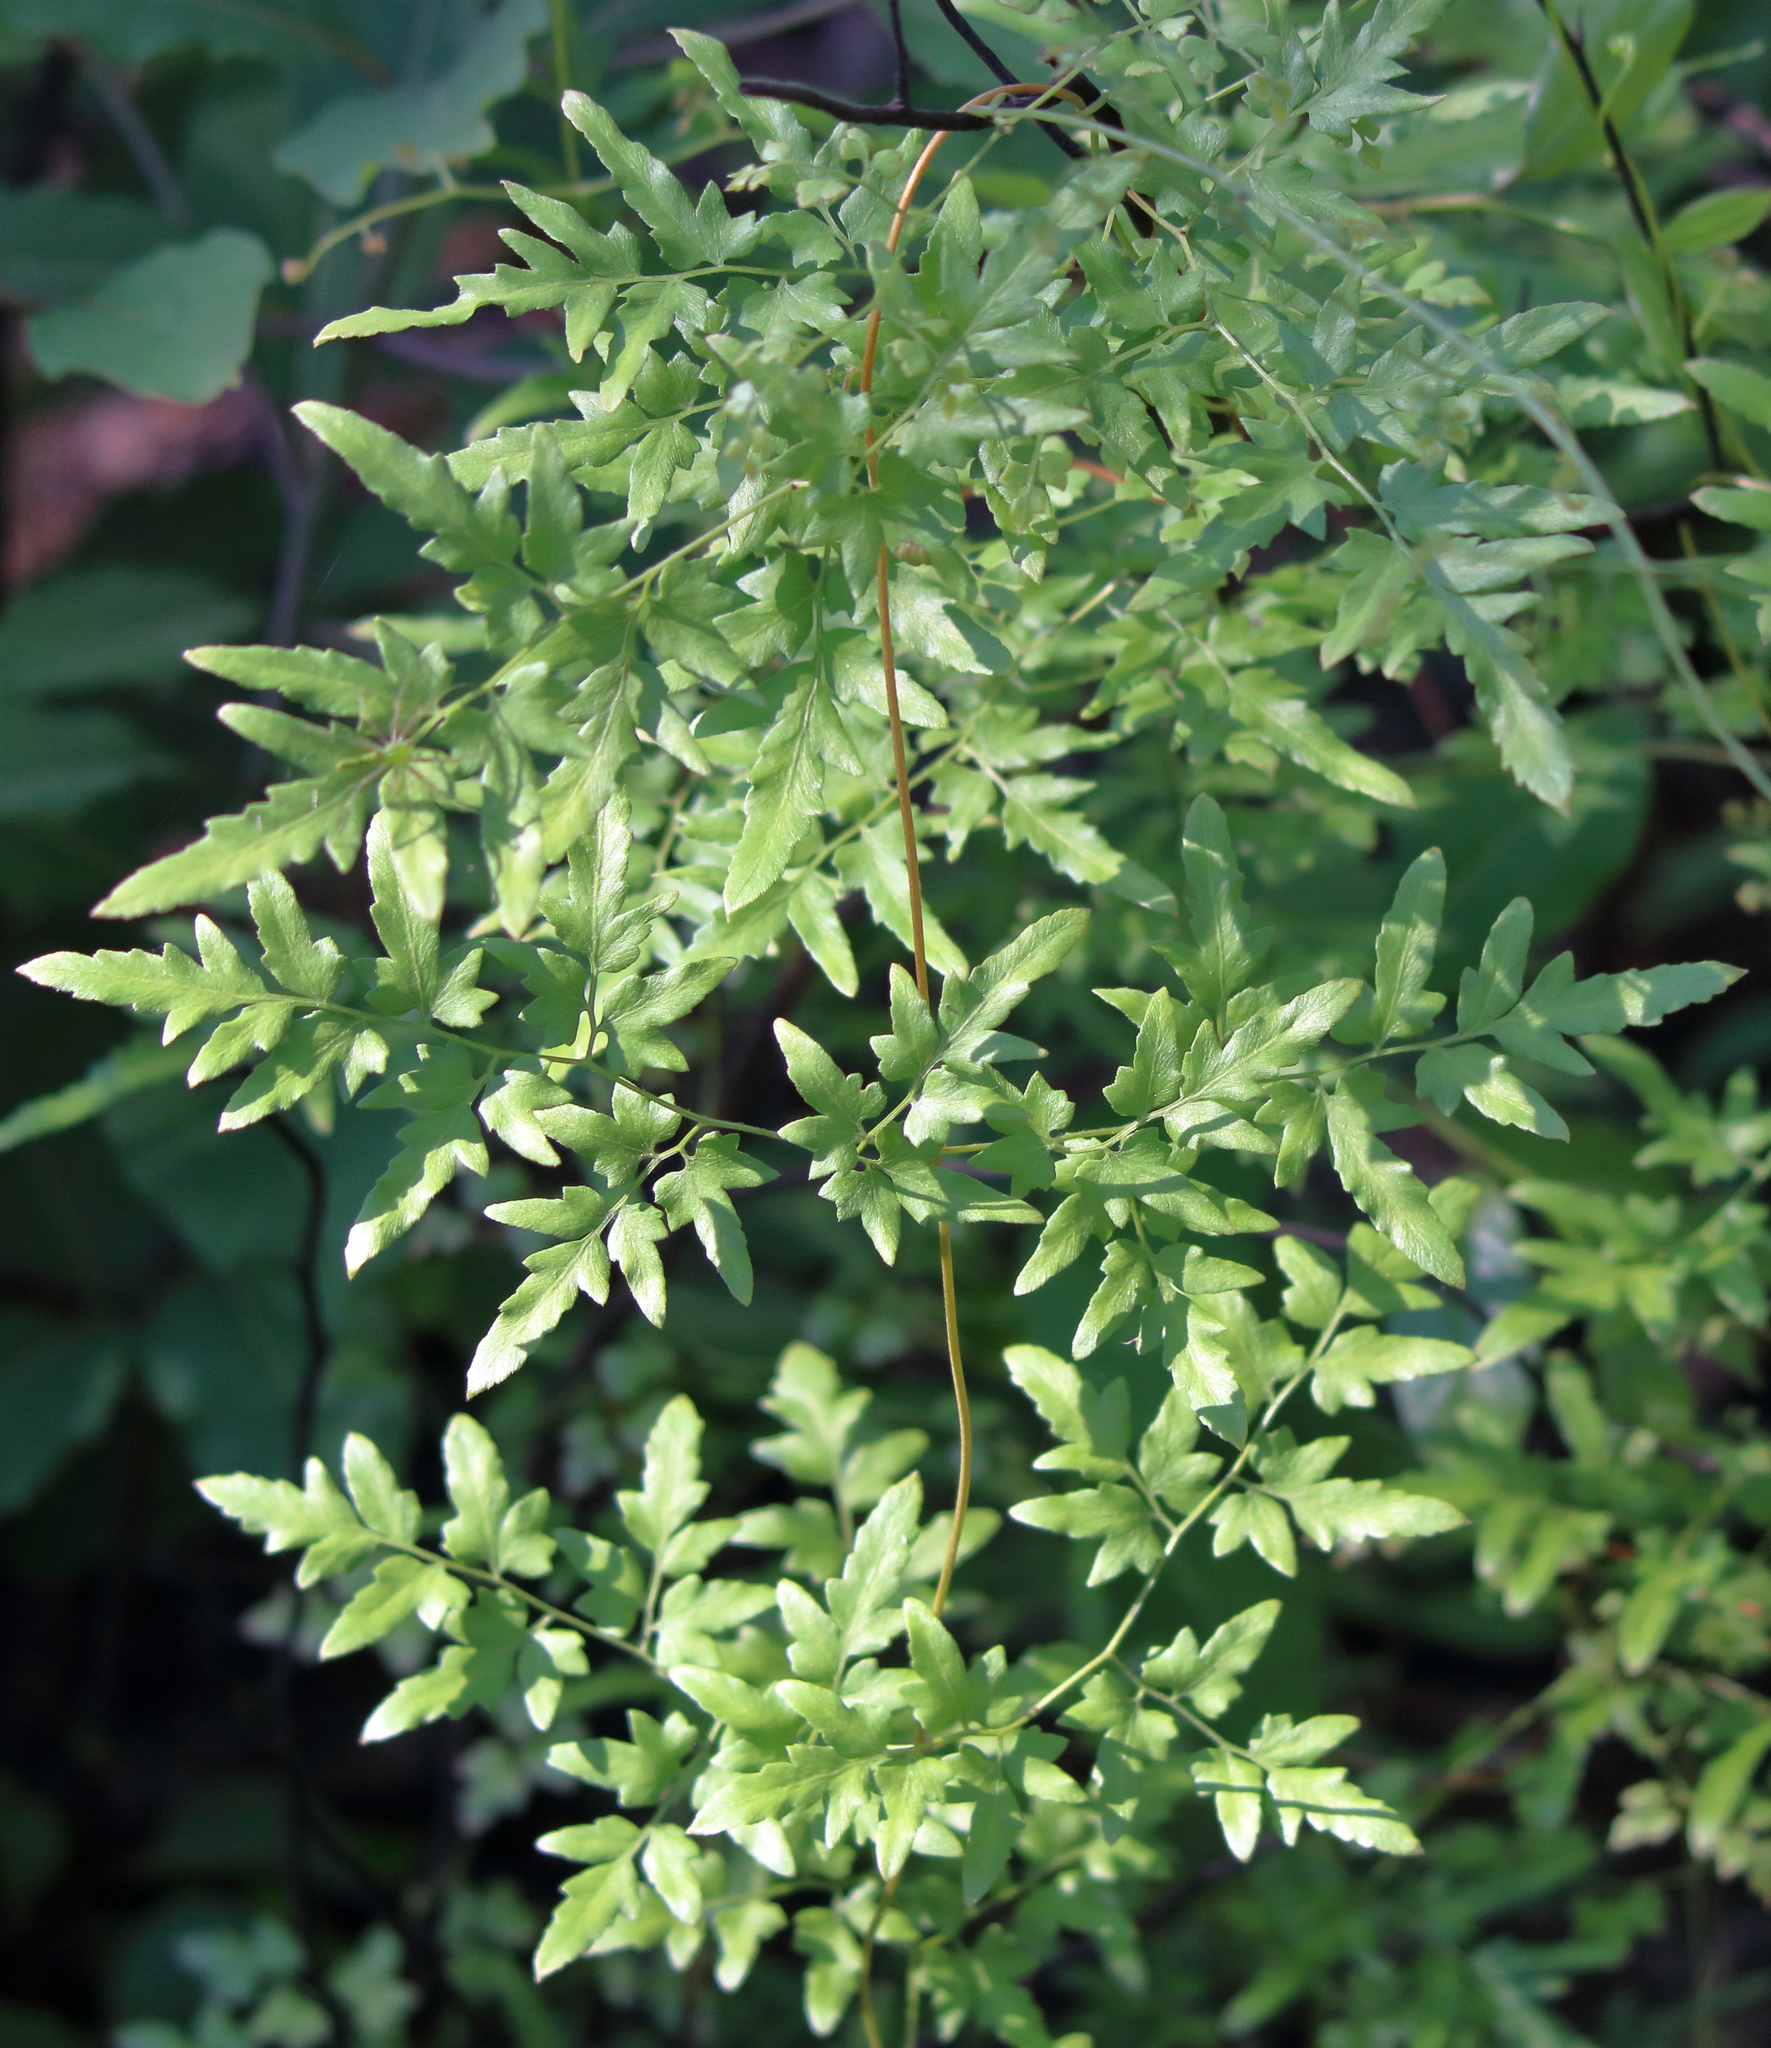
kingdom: Plantae
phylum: Tracheophyta
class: Polypodiopsida
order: Schizaeales
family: Lygodiaceae
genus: Lygodium
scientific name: Lygodium japonicum
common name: Japanese climbing fern
